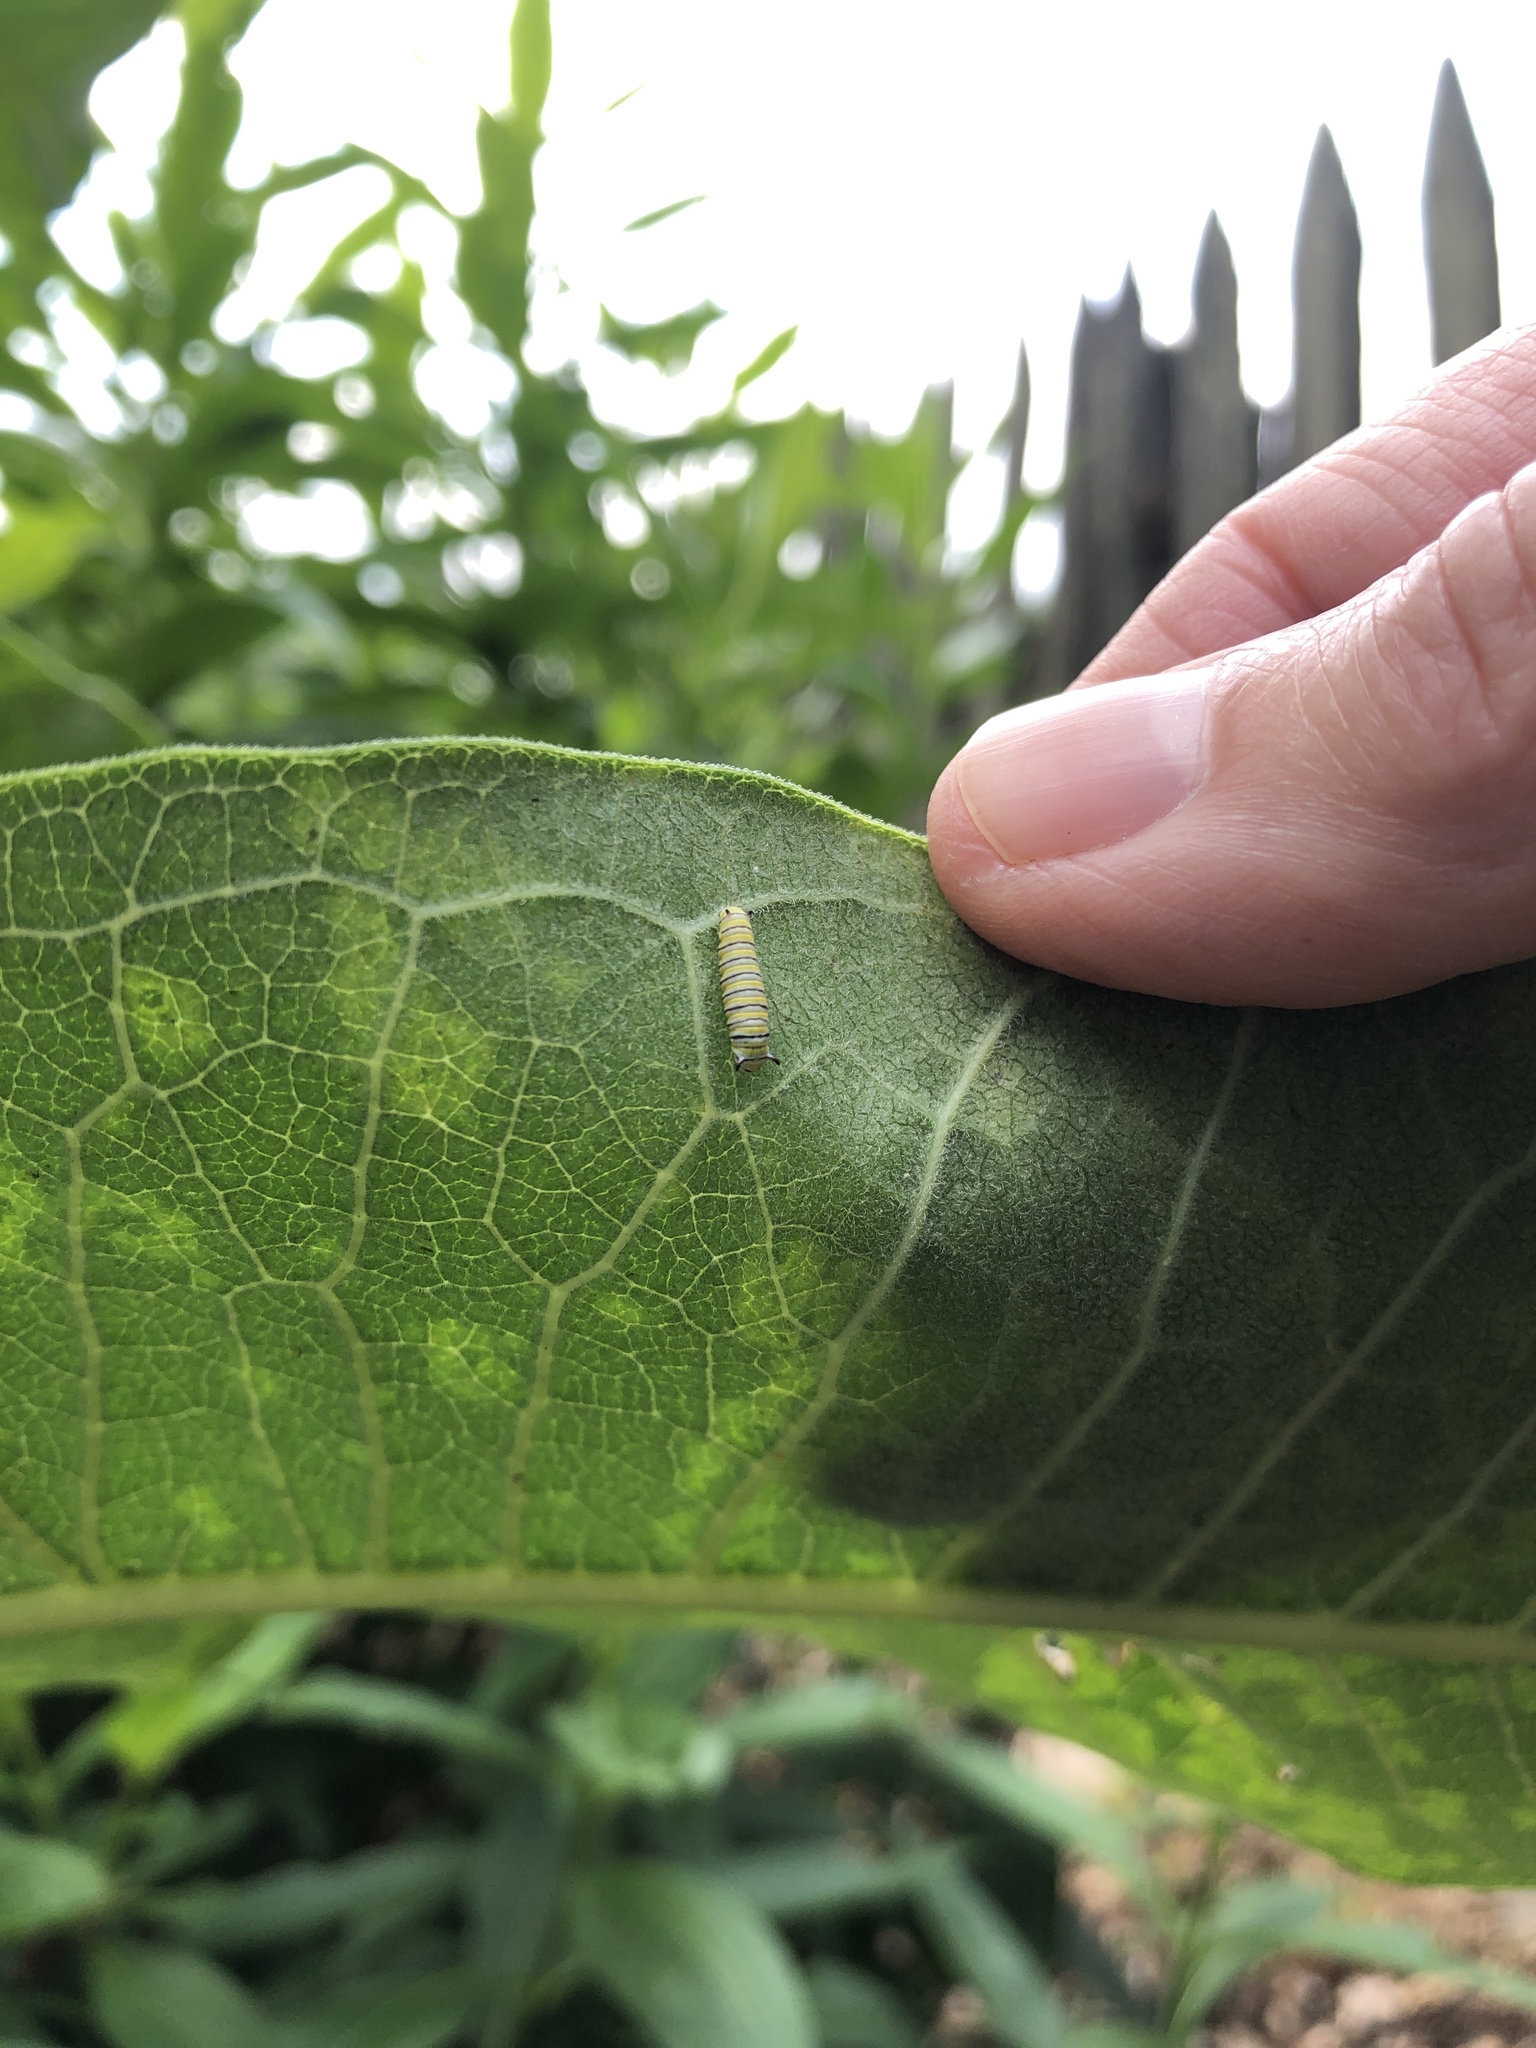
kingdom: Animalia
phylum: Arthropoda
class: Insecta
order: Lepidoptera
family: Nymphalidae
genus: Danaus
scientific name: Danaus plexippus
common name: Monarch
